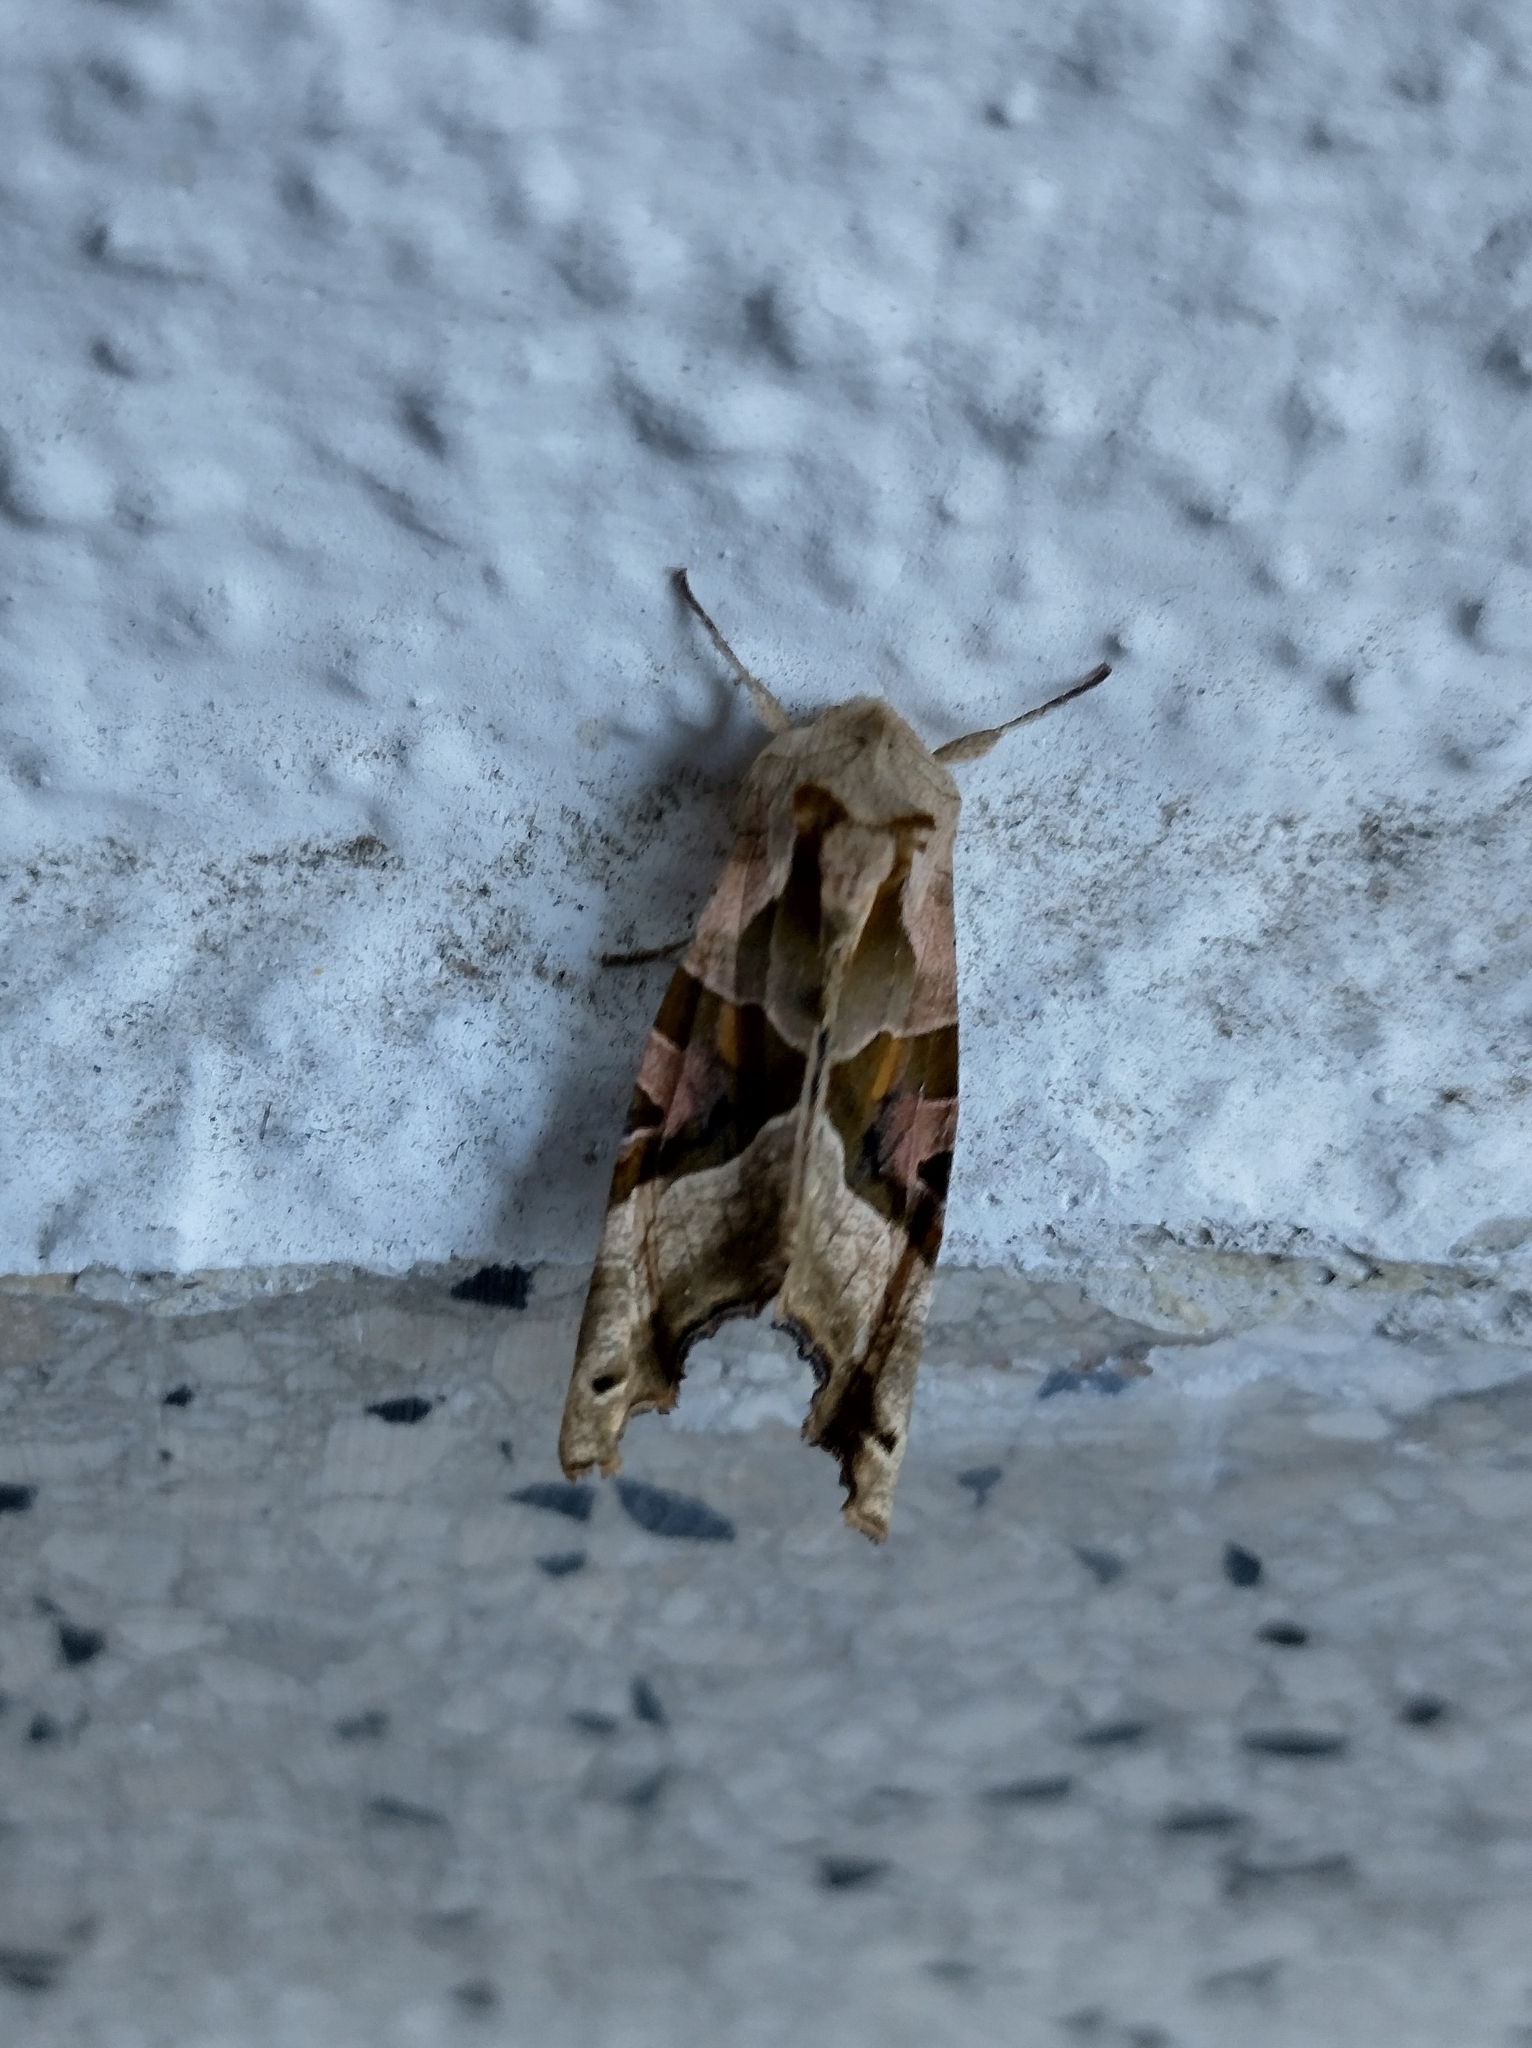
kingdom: Animalia
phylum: Arthropoda
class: Insecta
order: Lepidoptera
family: Noctuidae
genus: Phlogophora
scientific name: Phlogophora meticulosa
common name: Angle shades
